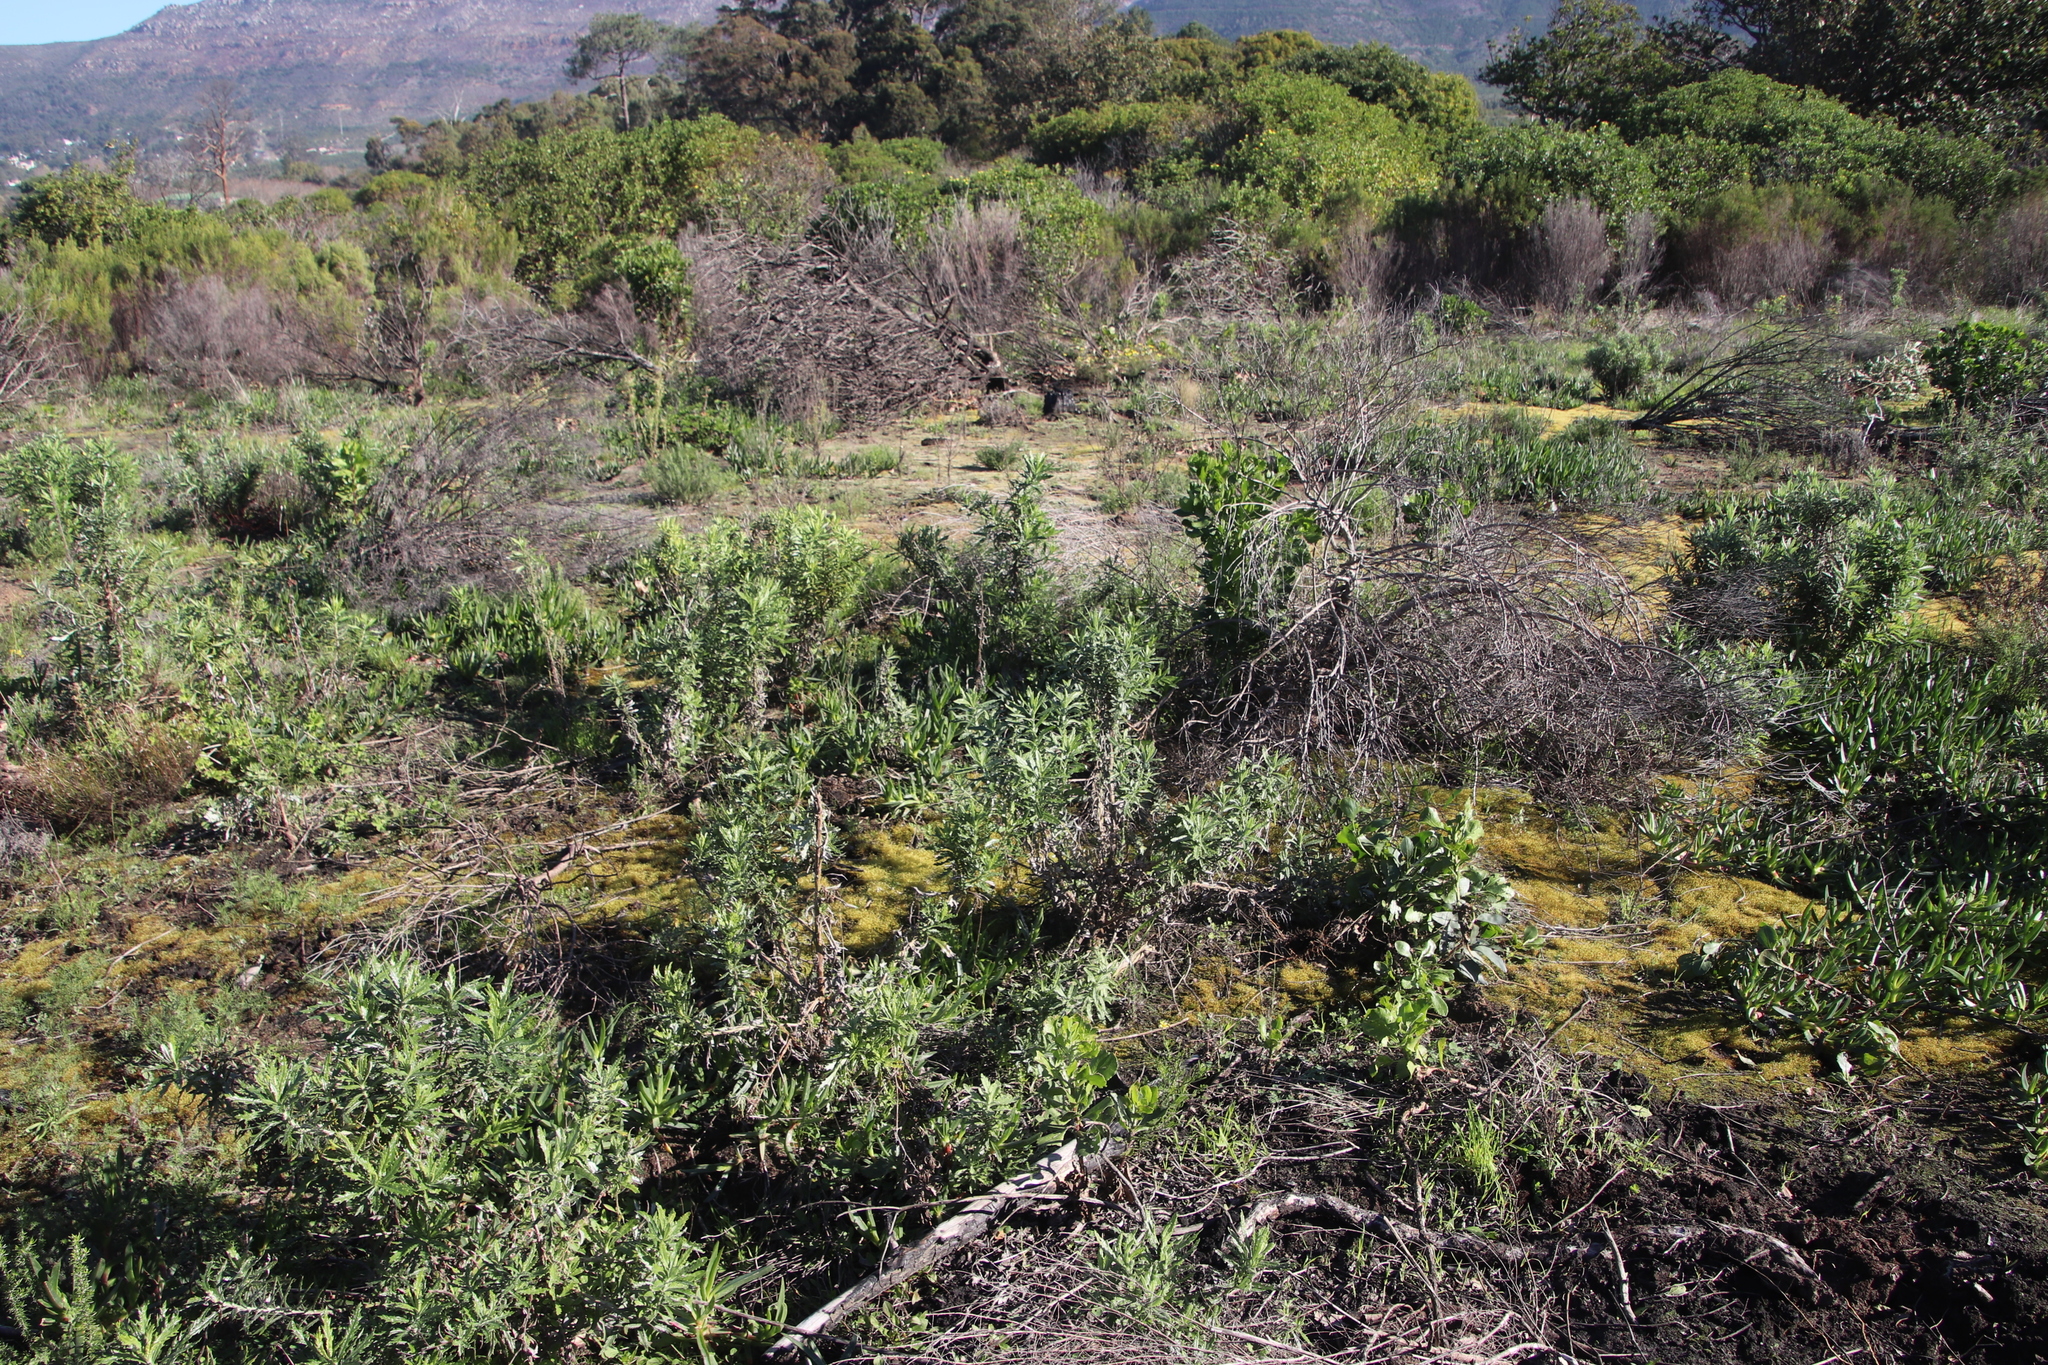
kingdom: Plantae
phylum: Tracheophyta
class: Magnoliopsida
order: Asterales
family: Asteraceae
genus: Senecio
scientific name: Senecio pterophorus
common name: Shoddy ragwort
